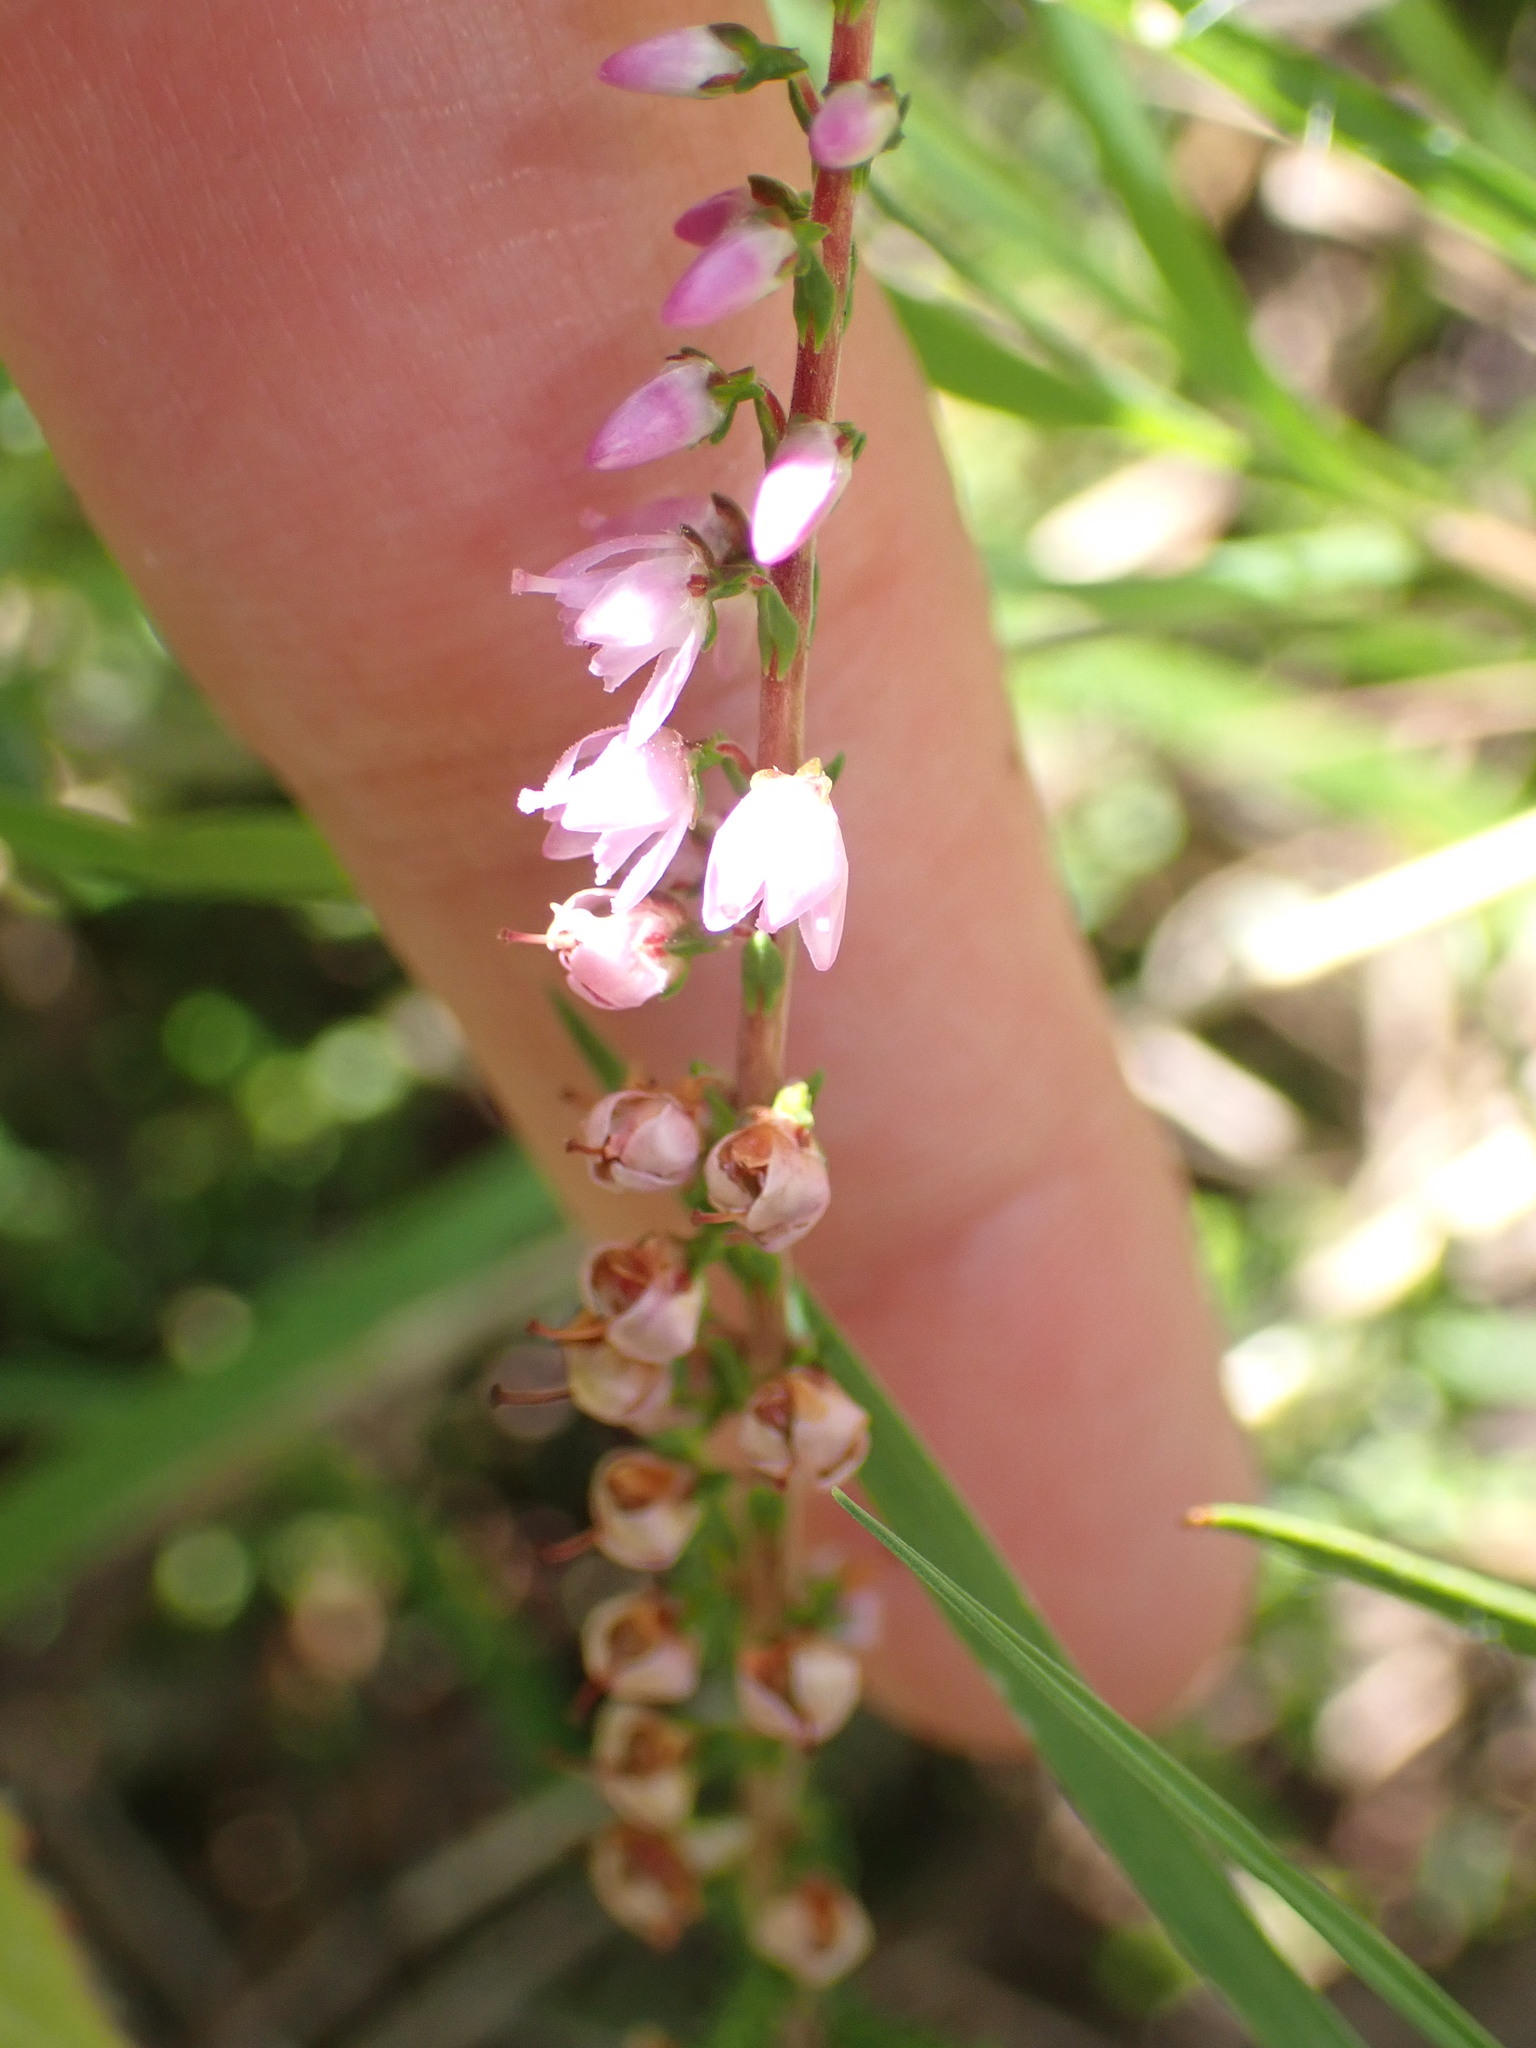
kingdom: Plantae
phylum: Tracheophyta
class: Magnoliopsida
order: Ericales
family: Ericaceae
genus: Calluna
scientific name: Calluna vulgaris
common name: Heather
